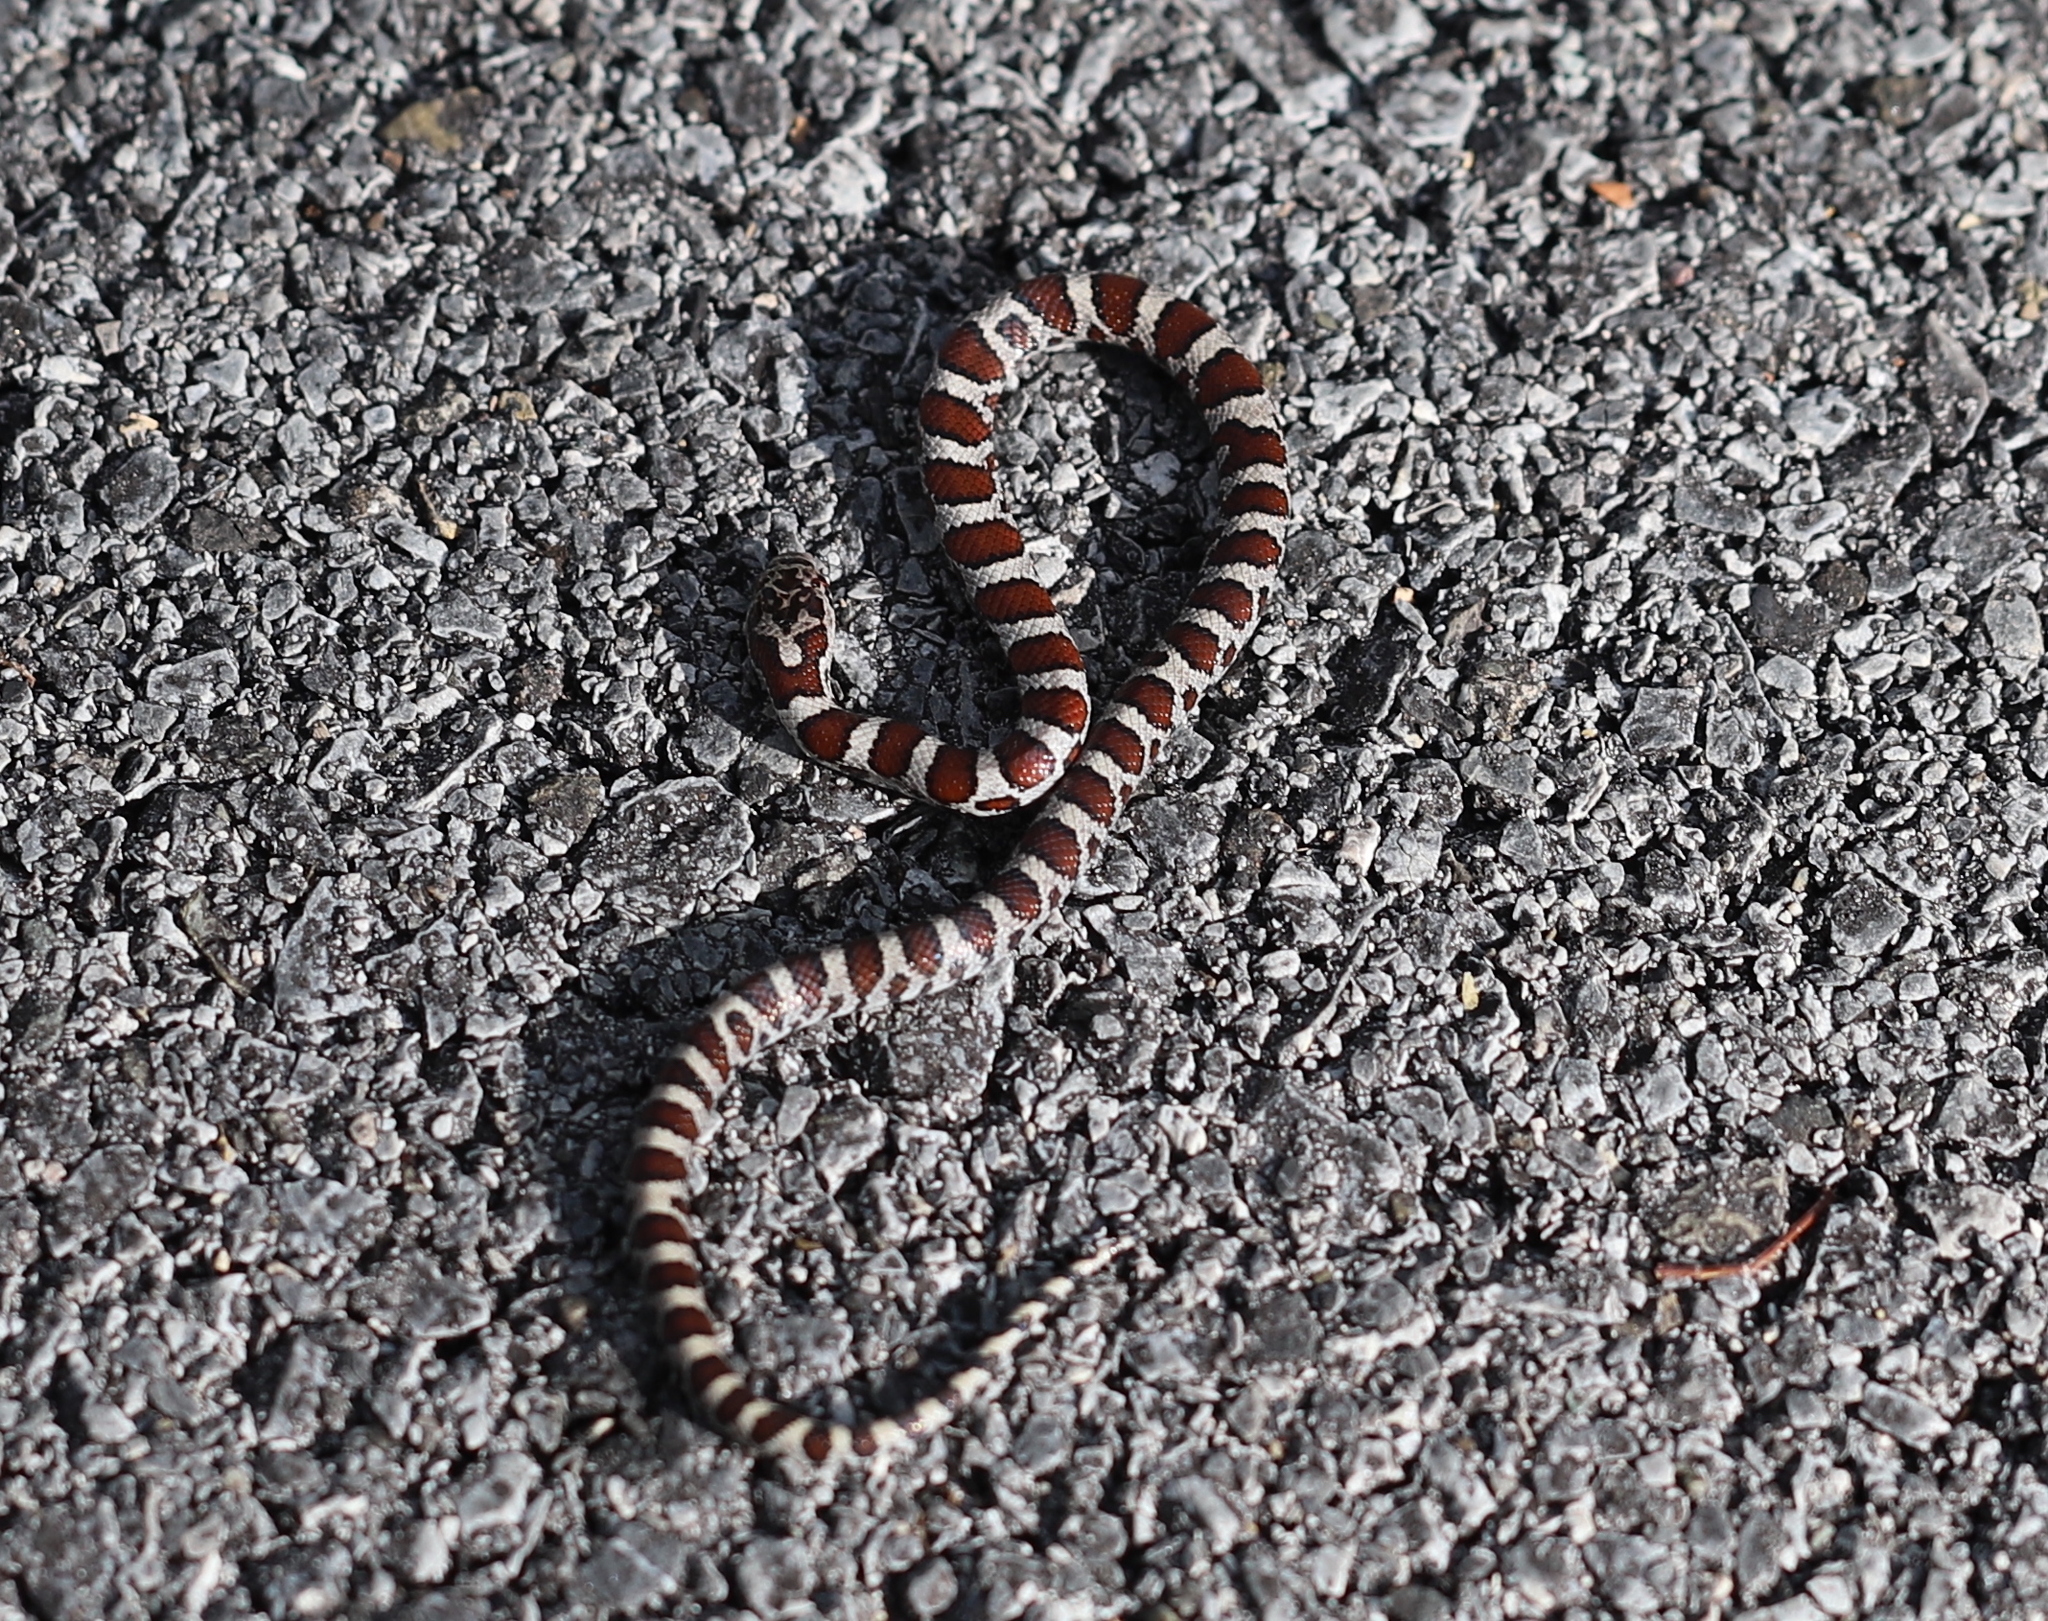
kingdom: Animalia
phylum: Chordata
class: Squamata
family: Colubridae
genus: Lampropeltis
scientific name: Lampropeltis triangulum
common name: Eastern milksnake
